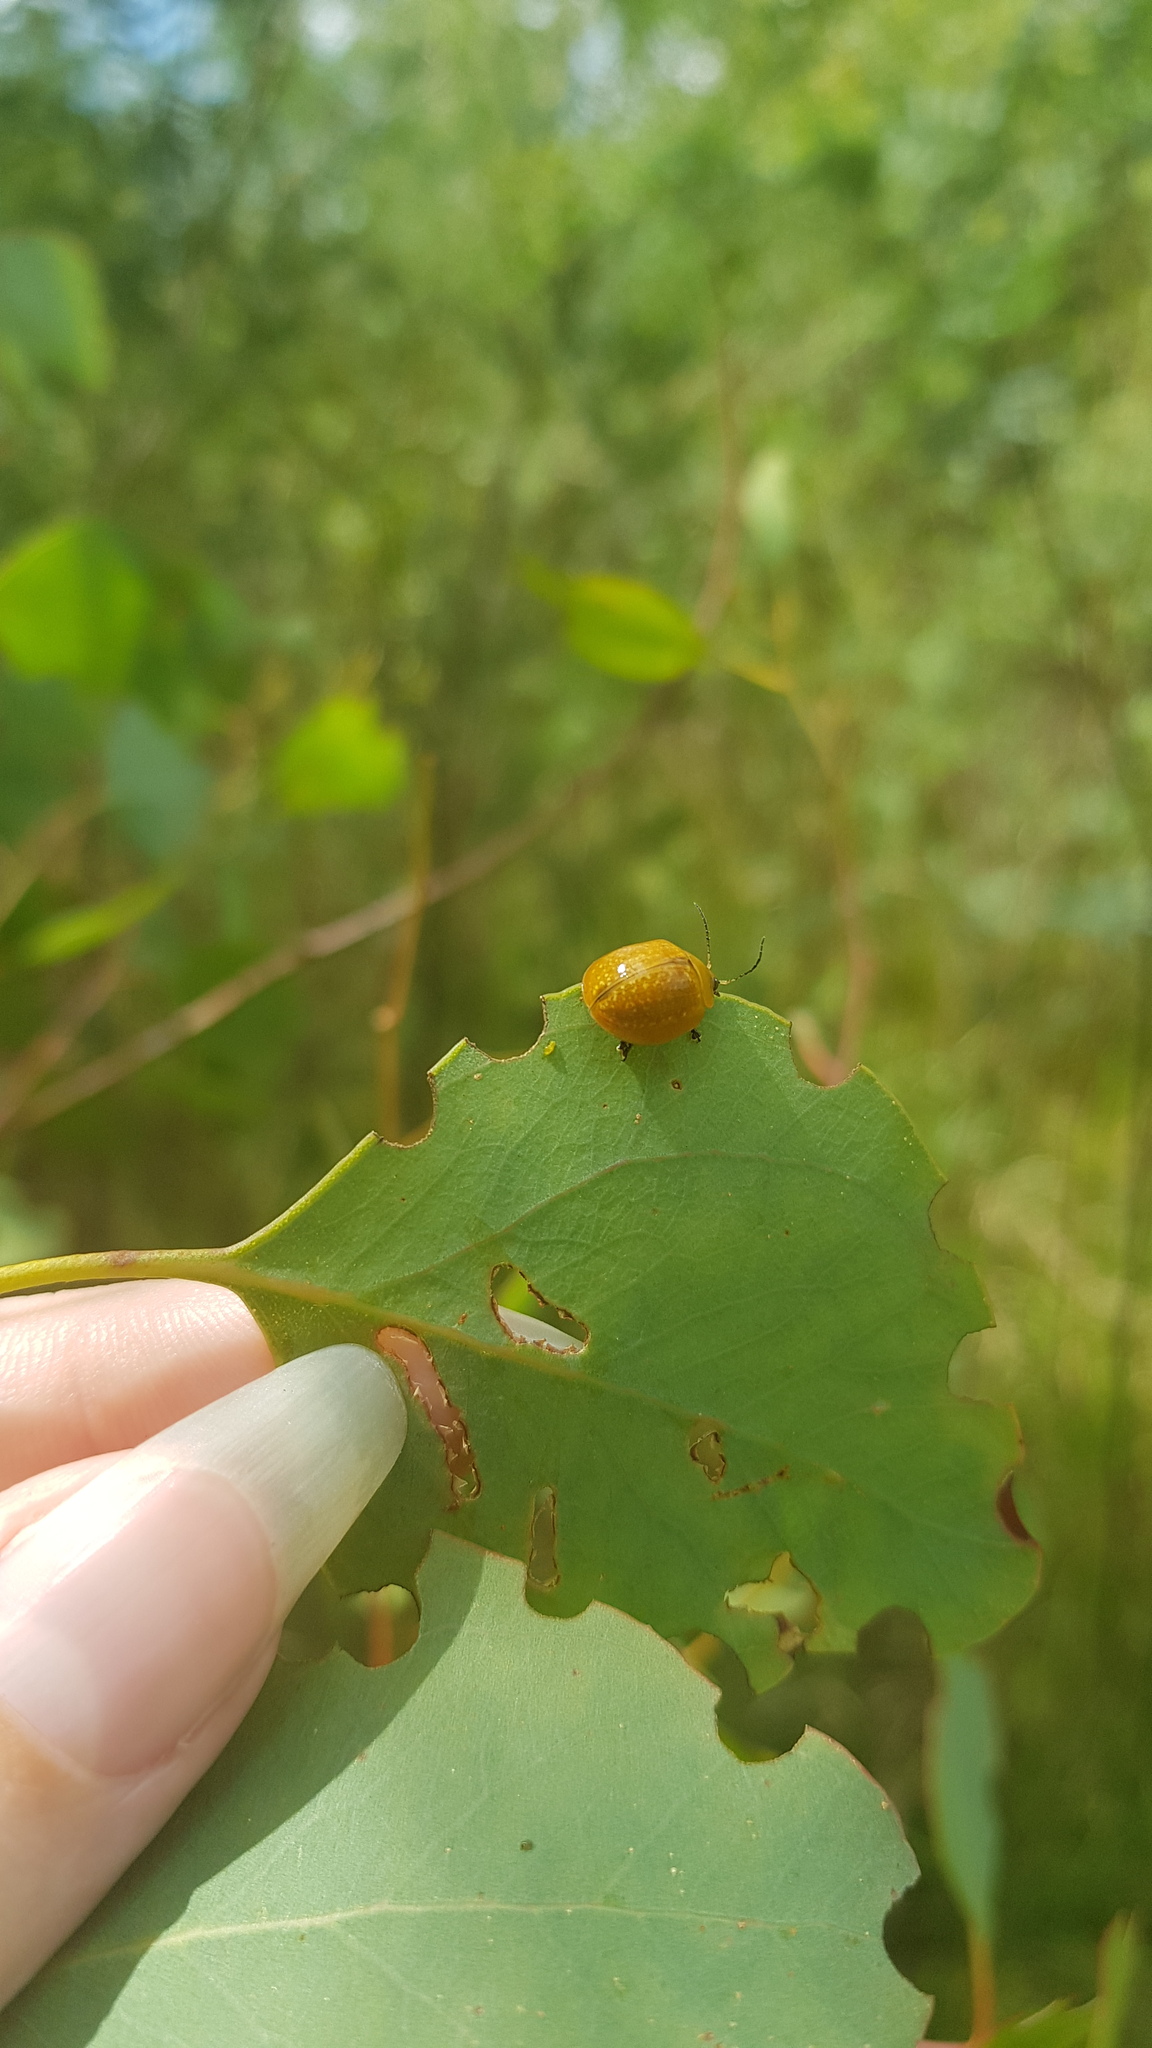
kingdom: Animalia
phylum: Arthropoda
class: Insecta
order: Coleoptera
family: Chrysomelidae
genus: Paropsisterna
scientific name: Paropsisterna cloelia
